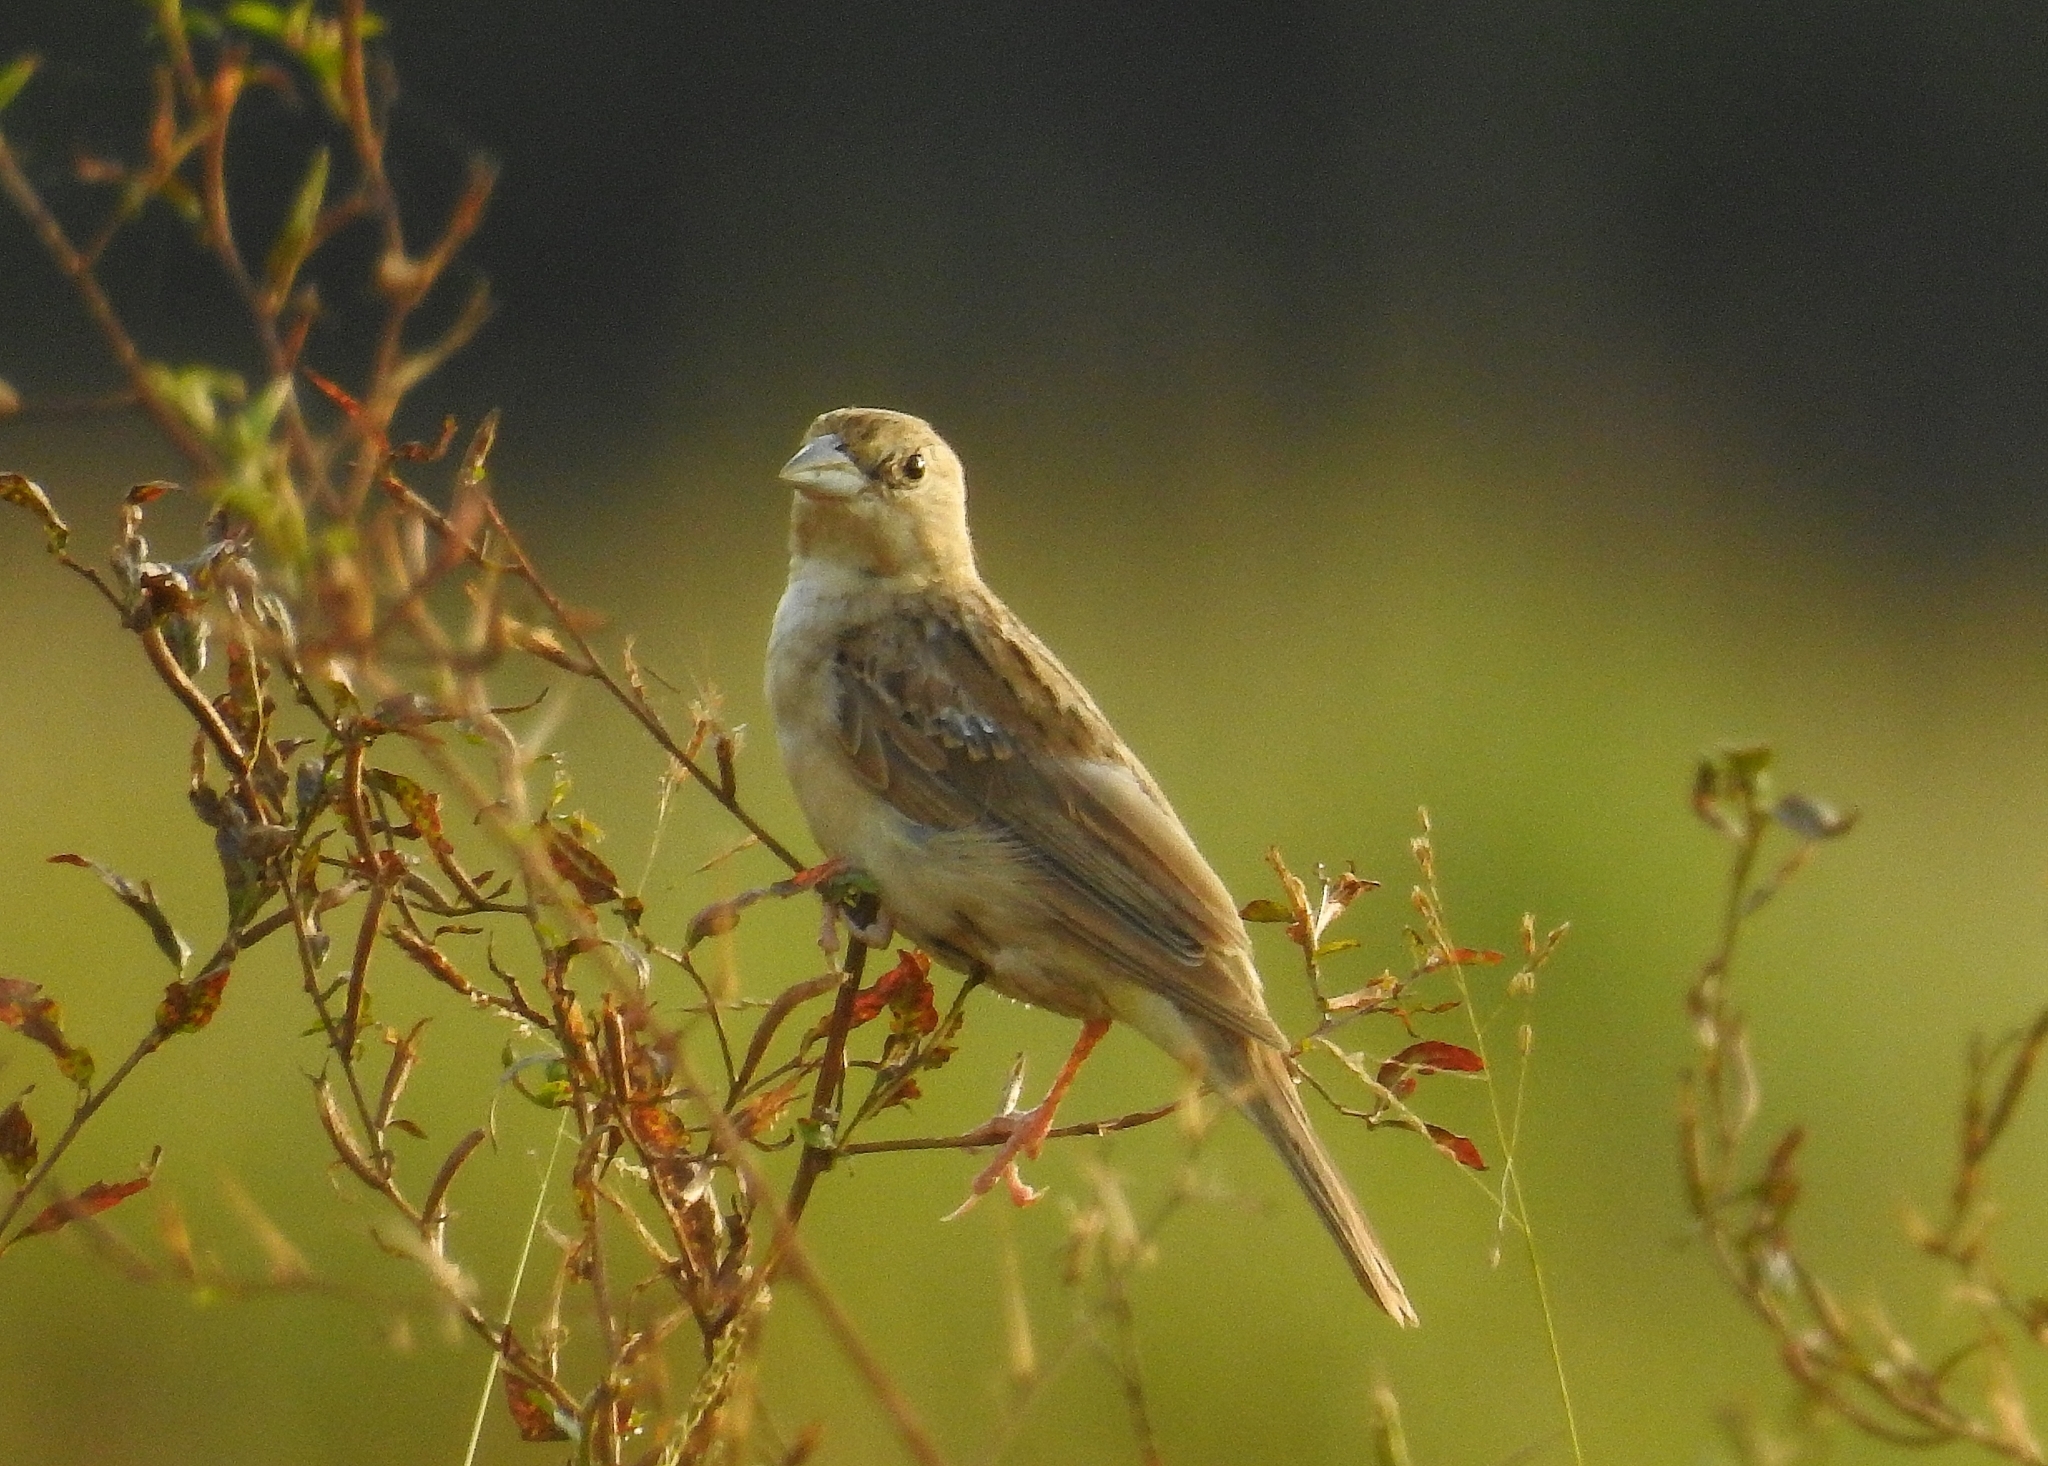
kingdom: Animalia
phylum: Chordata
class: Aves
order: Passeriformes
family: Emberizidae
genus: Emberiza
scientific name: Emberiza melanocephala
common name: Black-headed bunting
